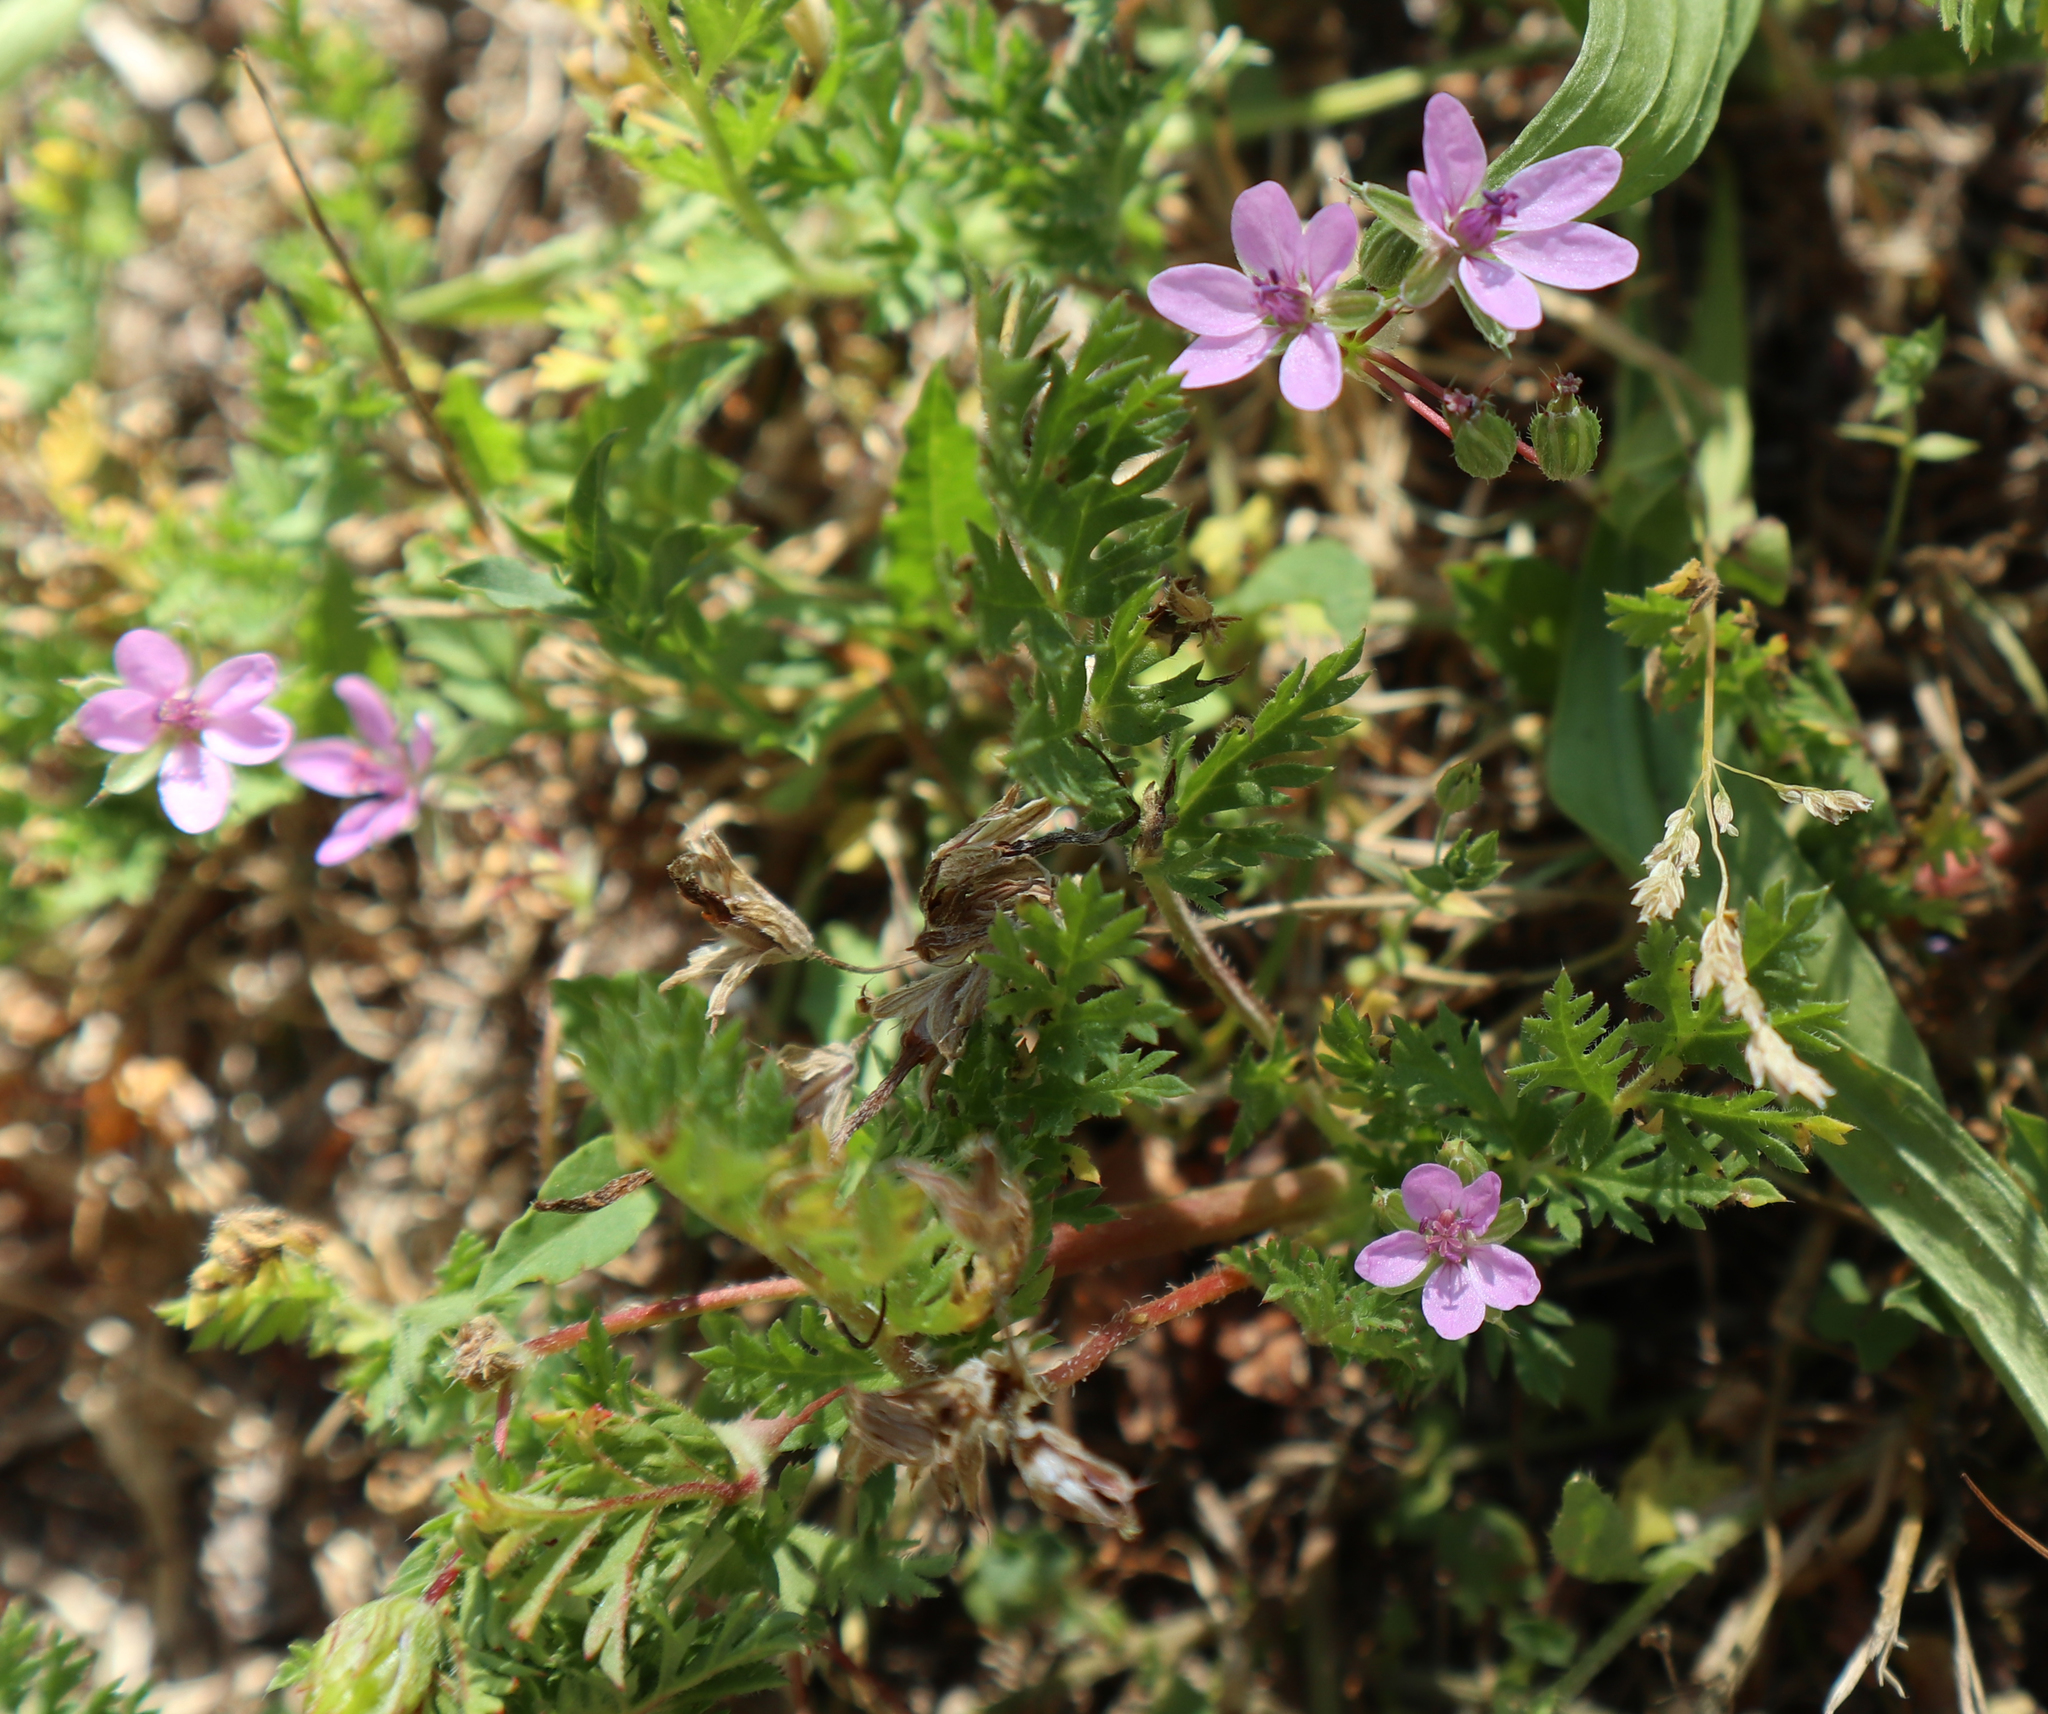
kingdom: Plantae
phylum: Tracheophyta
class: Magnoliopsida
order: Geraniales
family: Geraniaceae
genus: Erodium
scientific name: Erodium cicutarium
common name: Common stork's-bill
